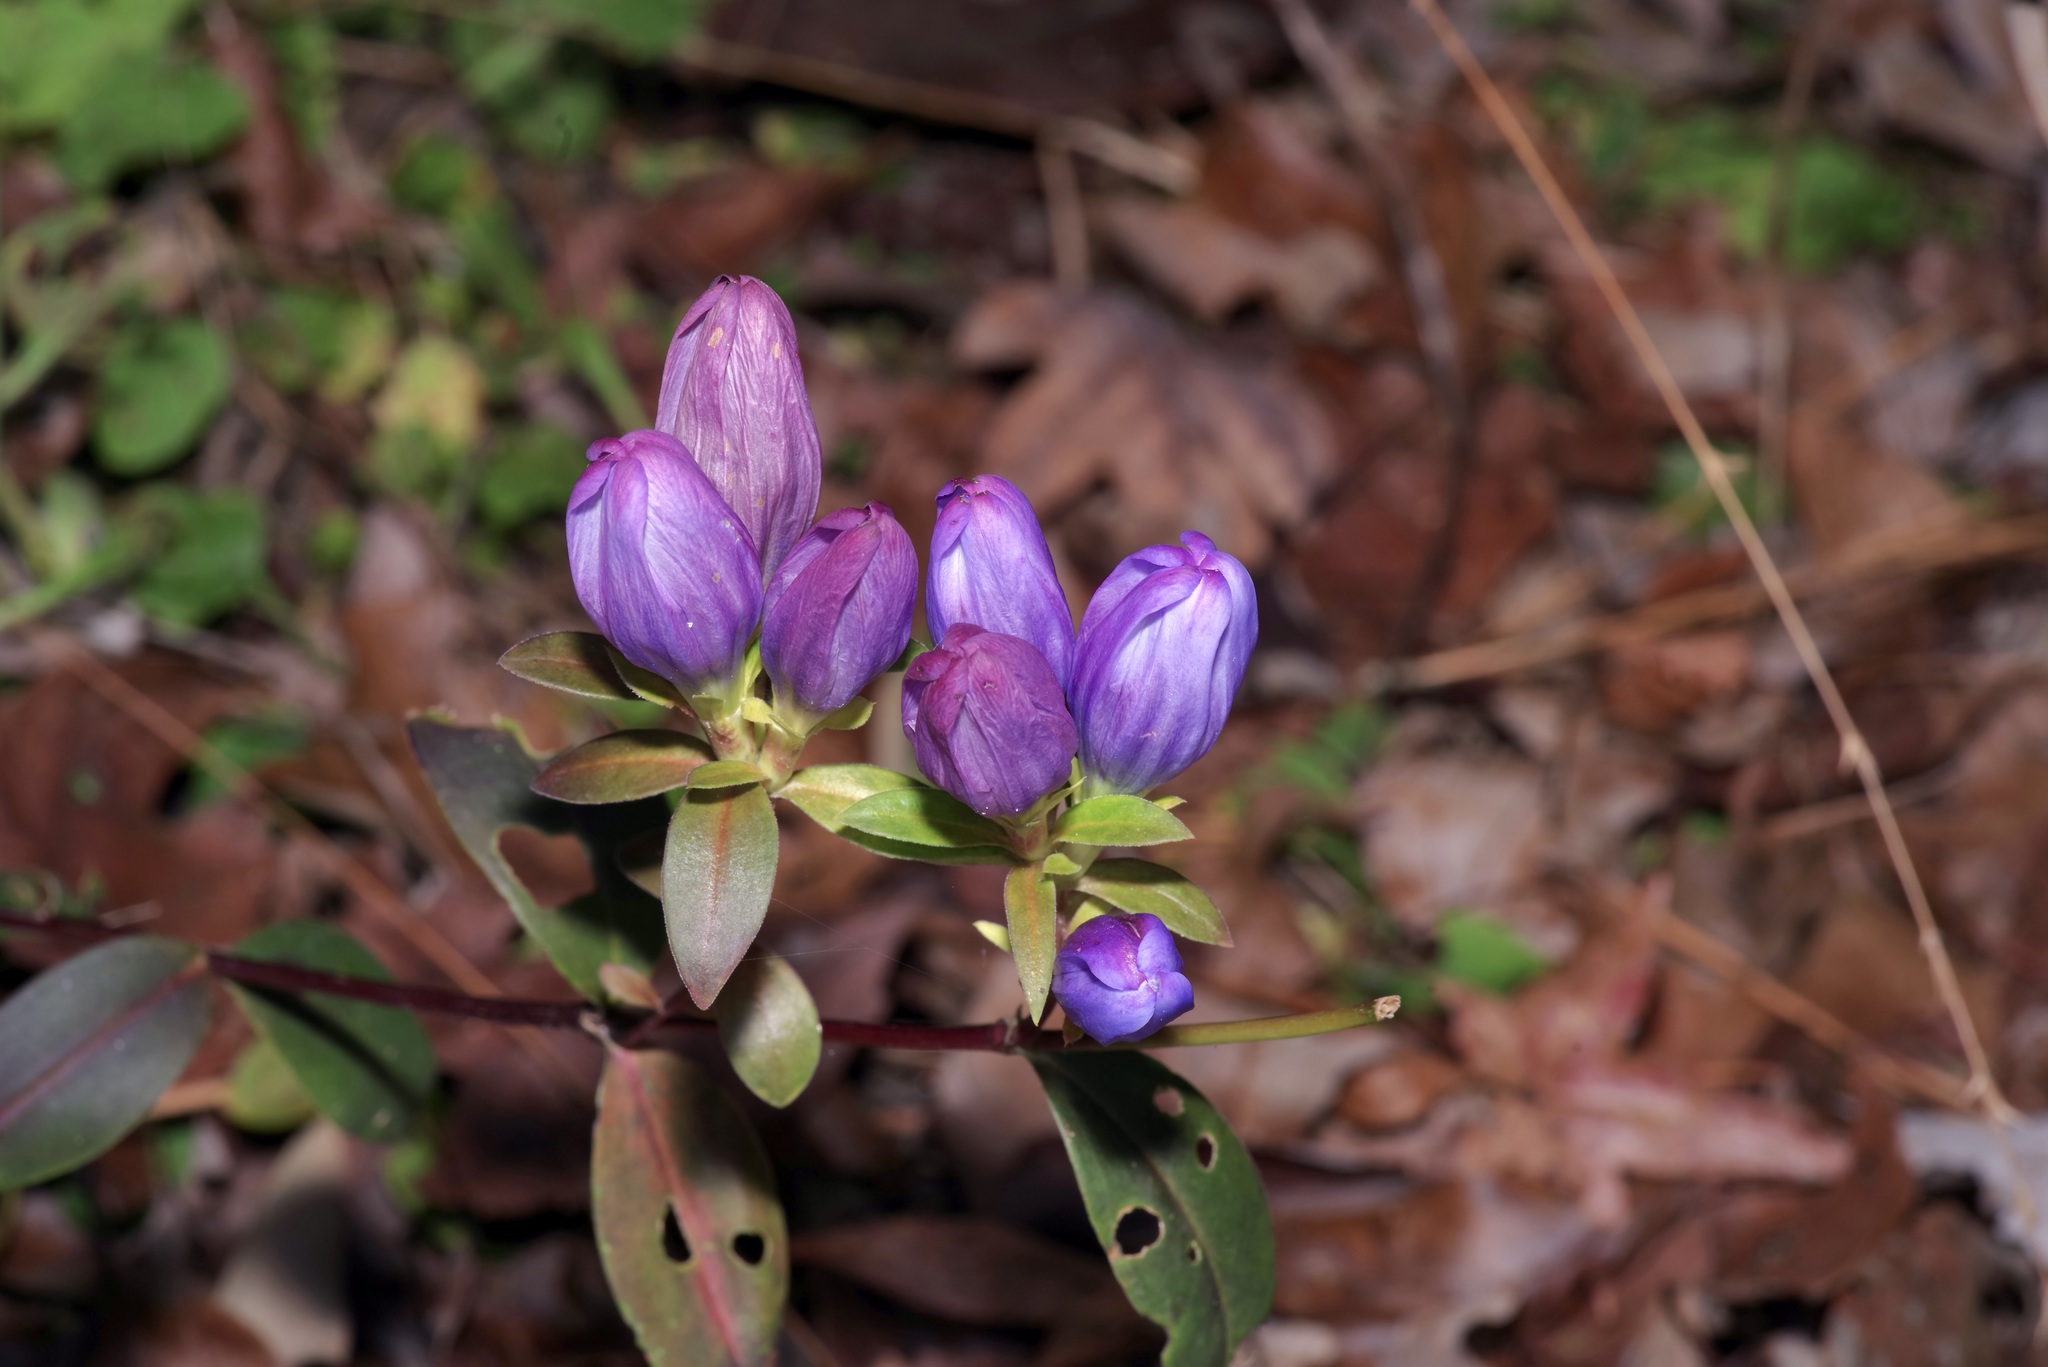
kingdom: Plantae
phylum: Tracheophyta
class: Magnoliopsida
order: Gentianales
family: Gentianaceae
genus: Gentiana
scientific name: Gentiana saponaria
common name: Soapwort gentian
